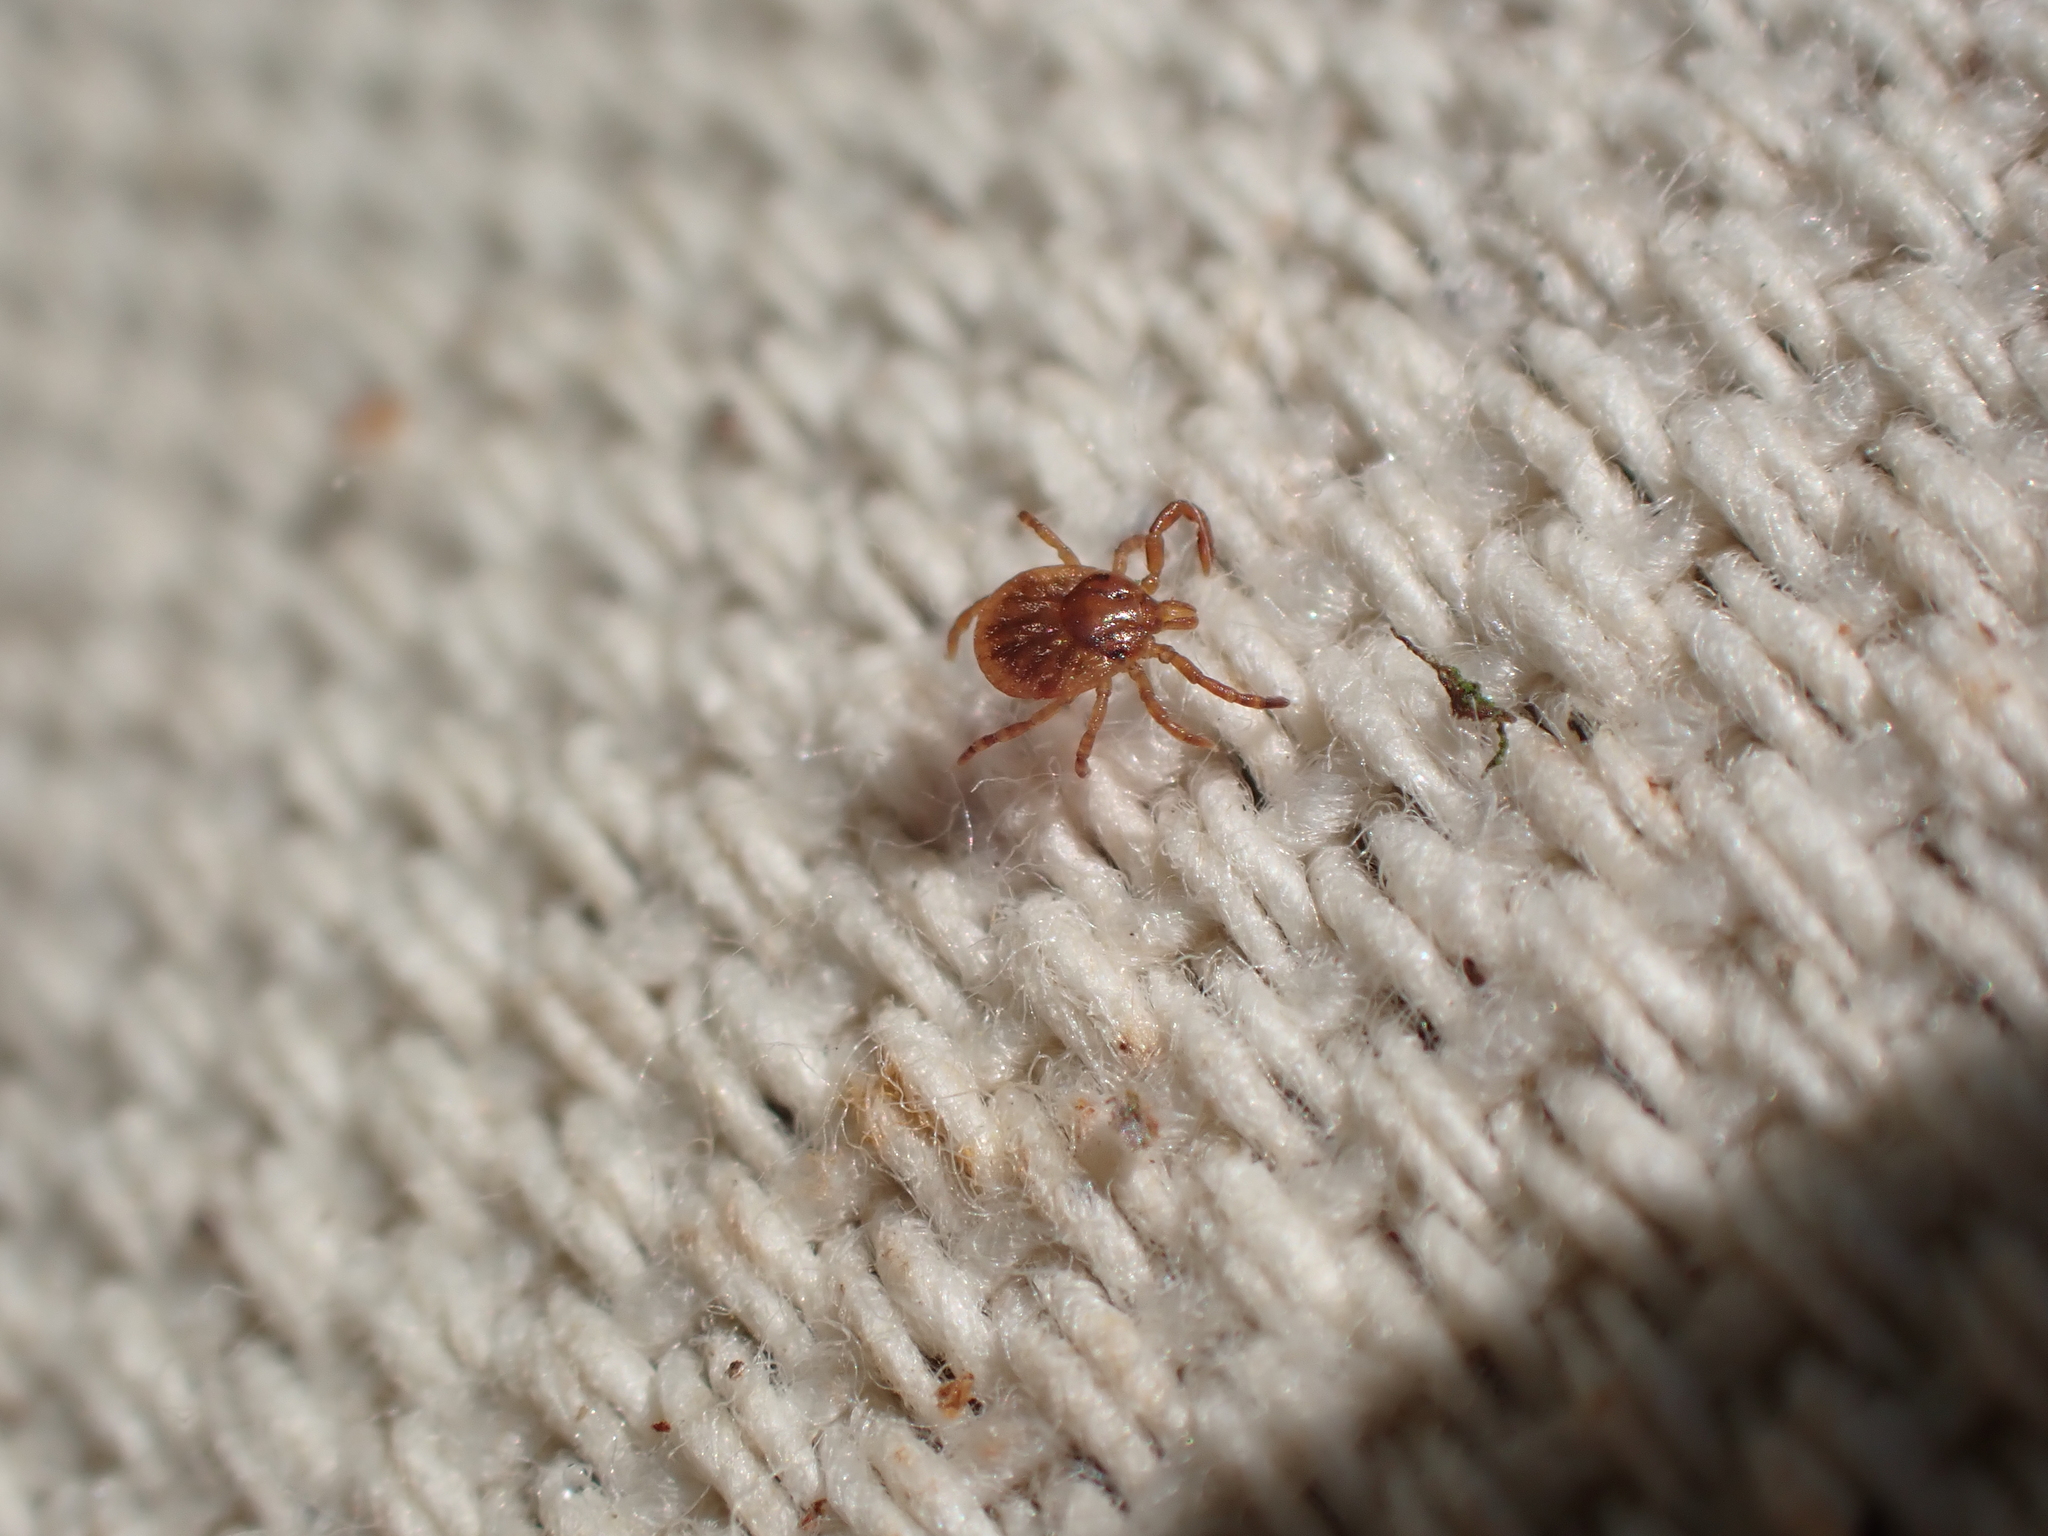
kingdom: Animalia
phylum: Arthropoda
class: Arachnida
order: Ixodida
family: Ixodidae
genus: Amblyomma
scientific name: Amblyomma americanum
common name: Lone star tick
